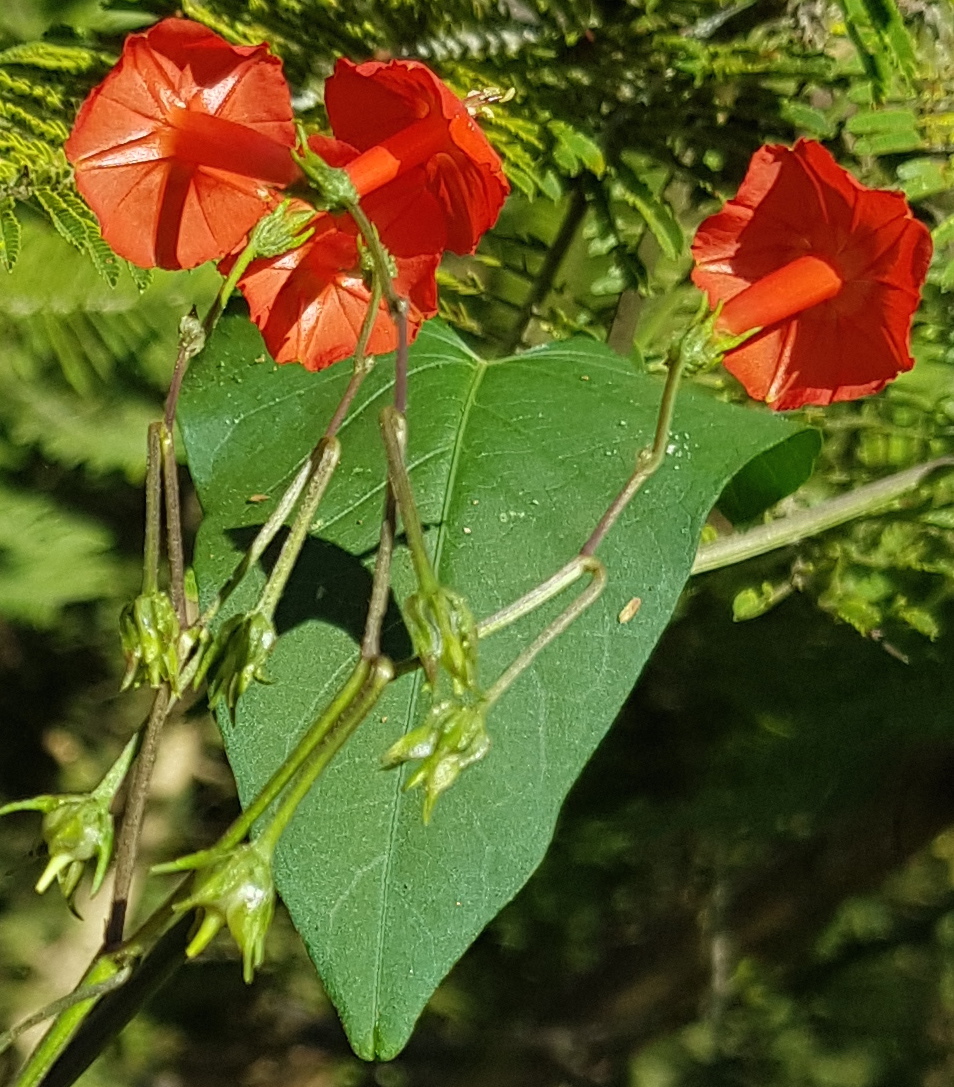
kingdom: Plantae
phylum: Tracheophyta
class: Magnoliopsida
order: Solanales
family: Convolvulaceae
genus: Ipomoea
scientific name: Ipomoea cholulensis
